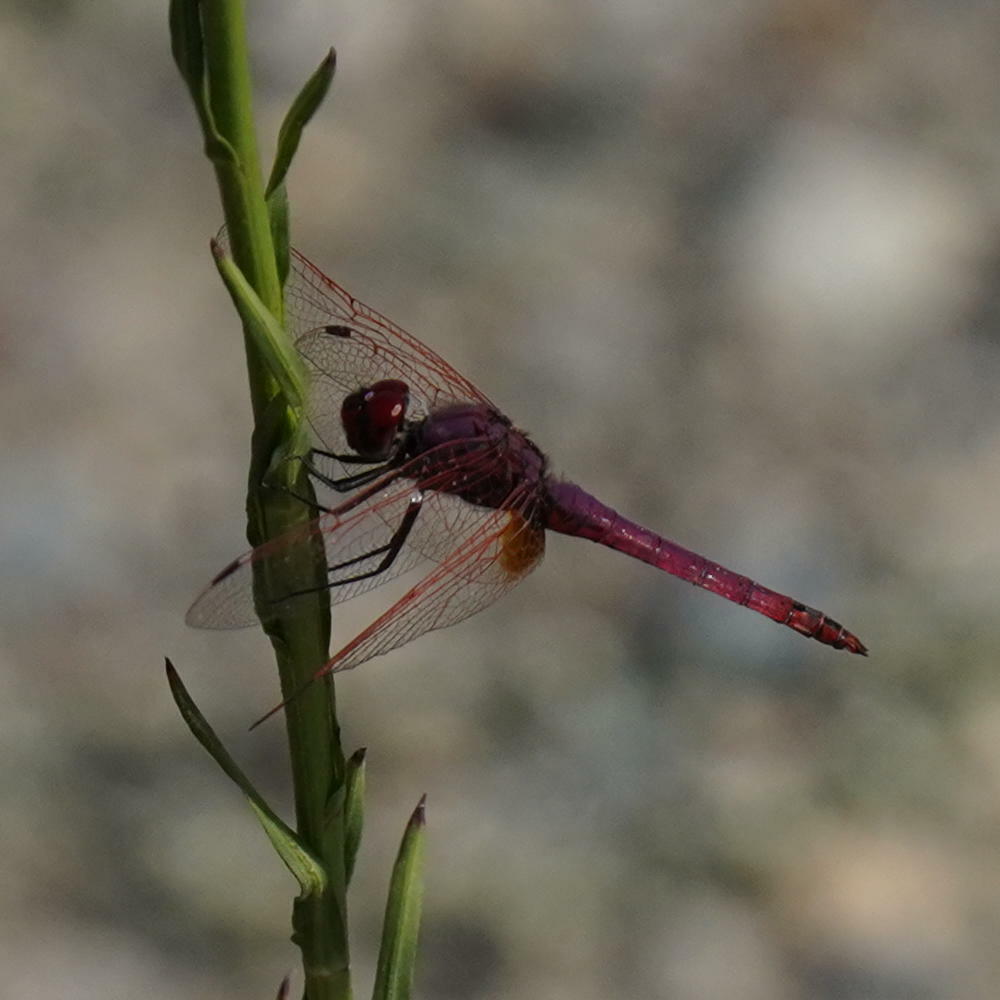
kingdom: Animalia
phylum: Arthropoda
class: Insecta
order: Odonata
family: Libellulidae
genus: Trithemis
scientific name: Trithemis annulata
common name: Violet dropwing
